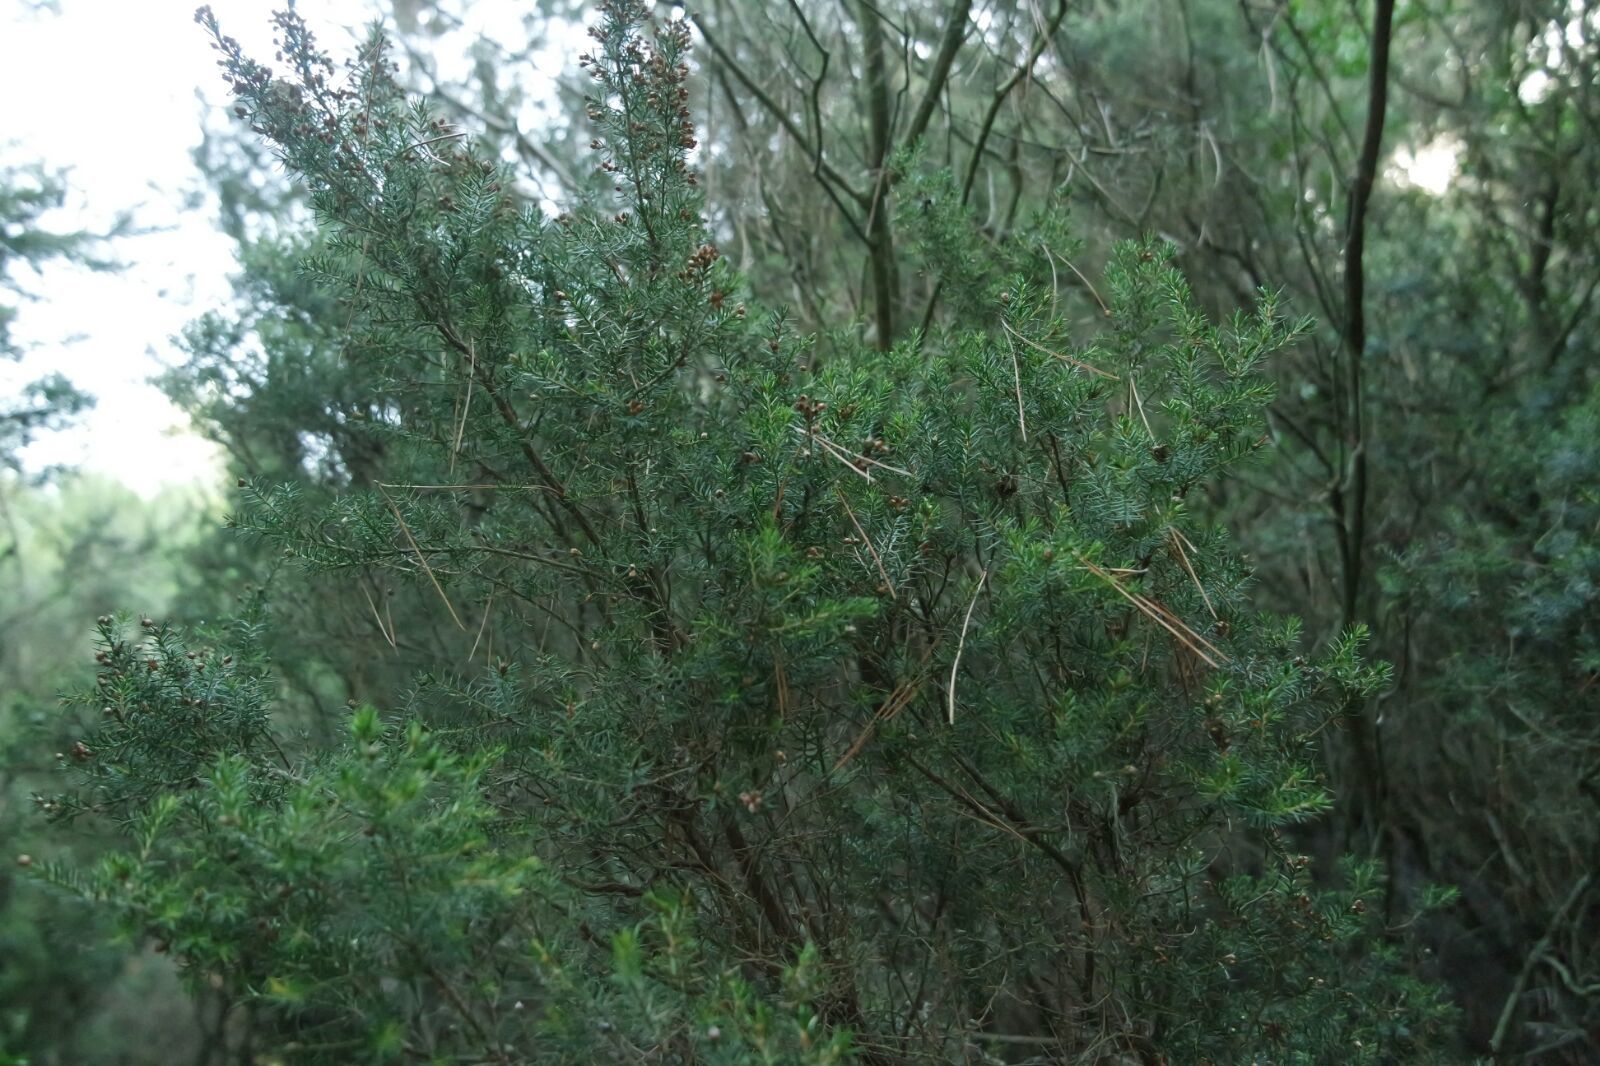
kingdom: Plantae
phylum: Tracheophyta
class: Magnoliopsida
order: Ericales
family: Ericaceae
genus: Erica
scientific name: Erica arborea
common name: Tree heath
